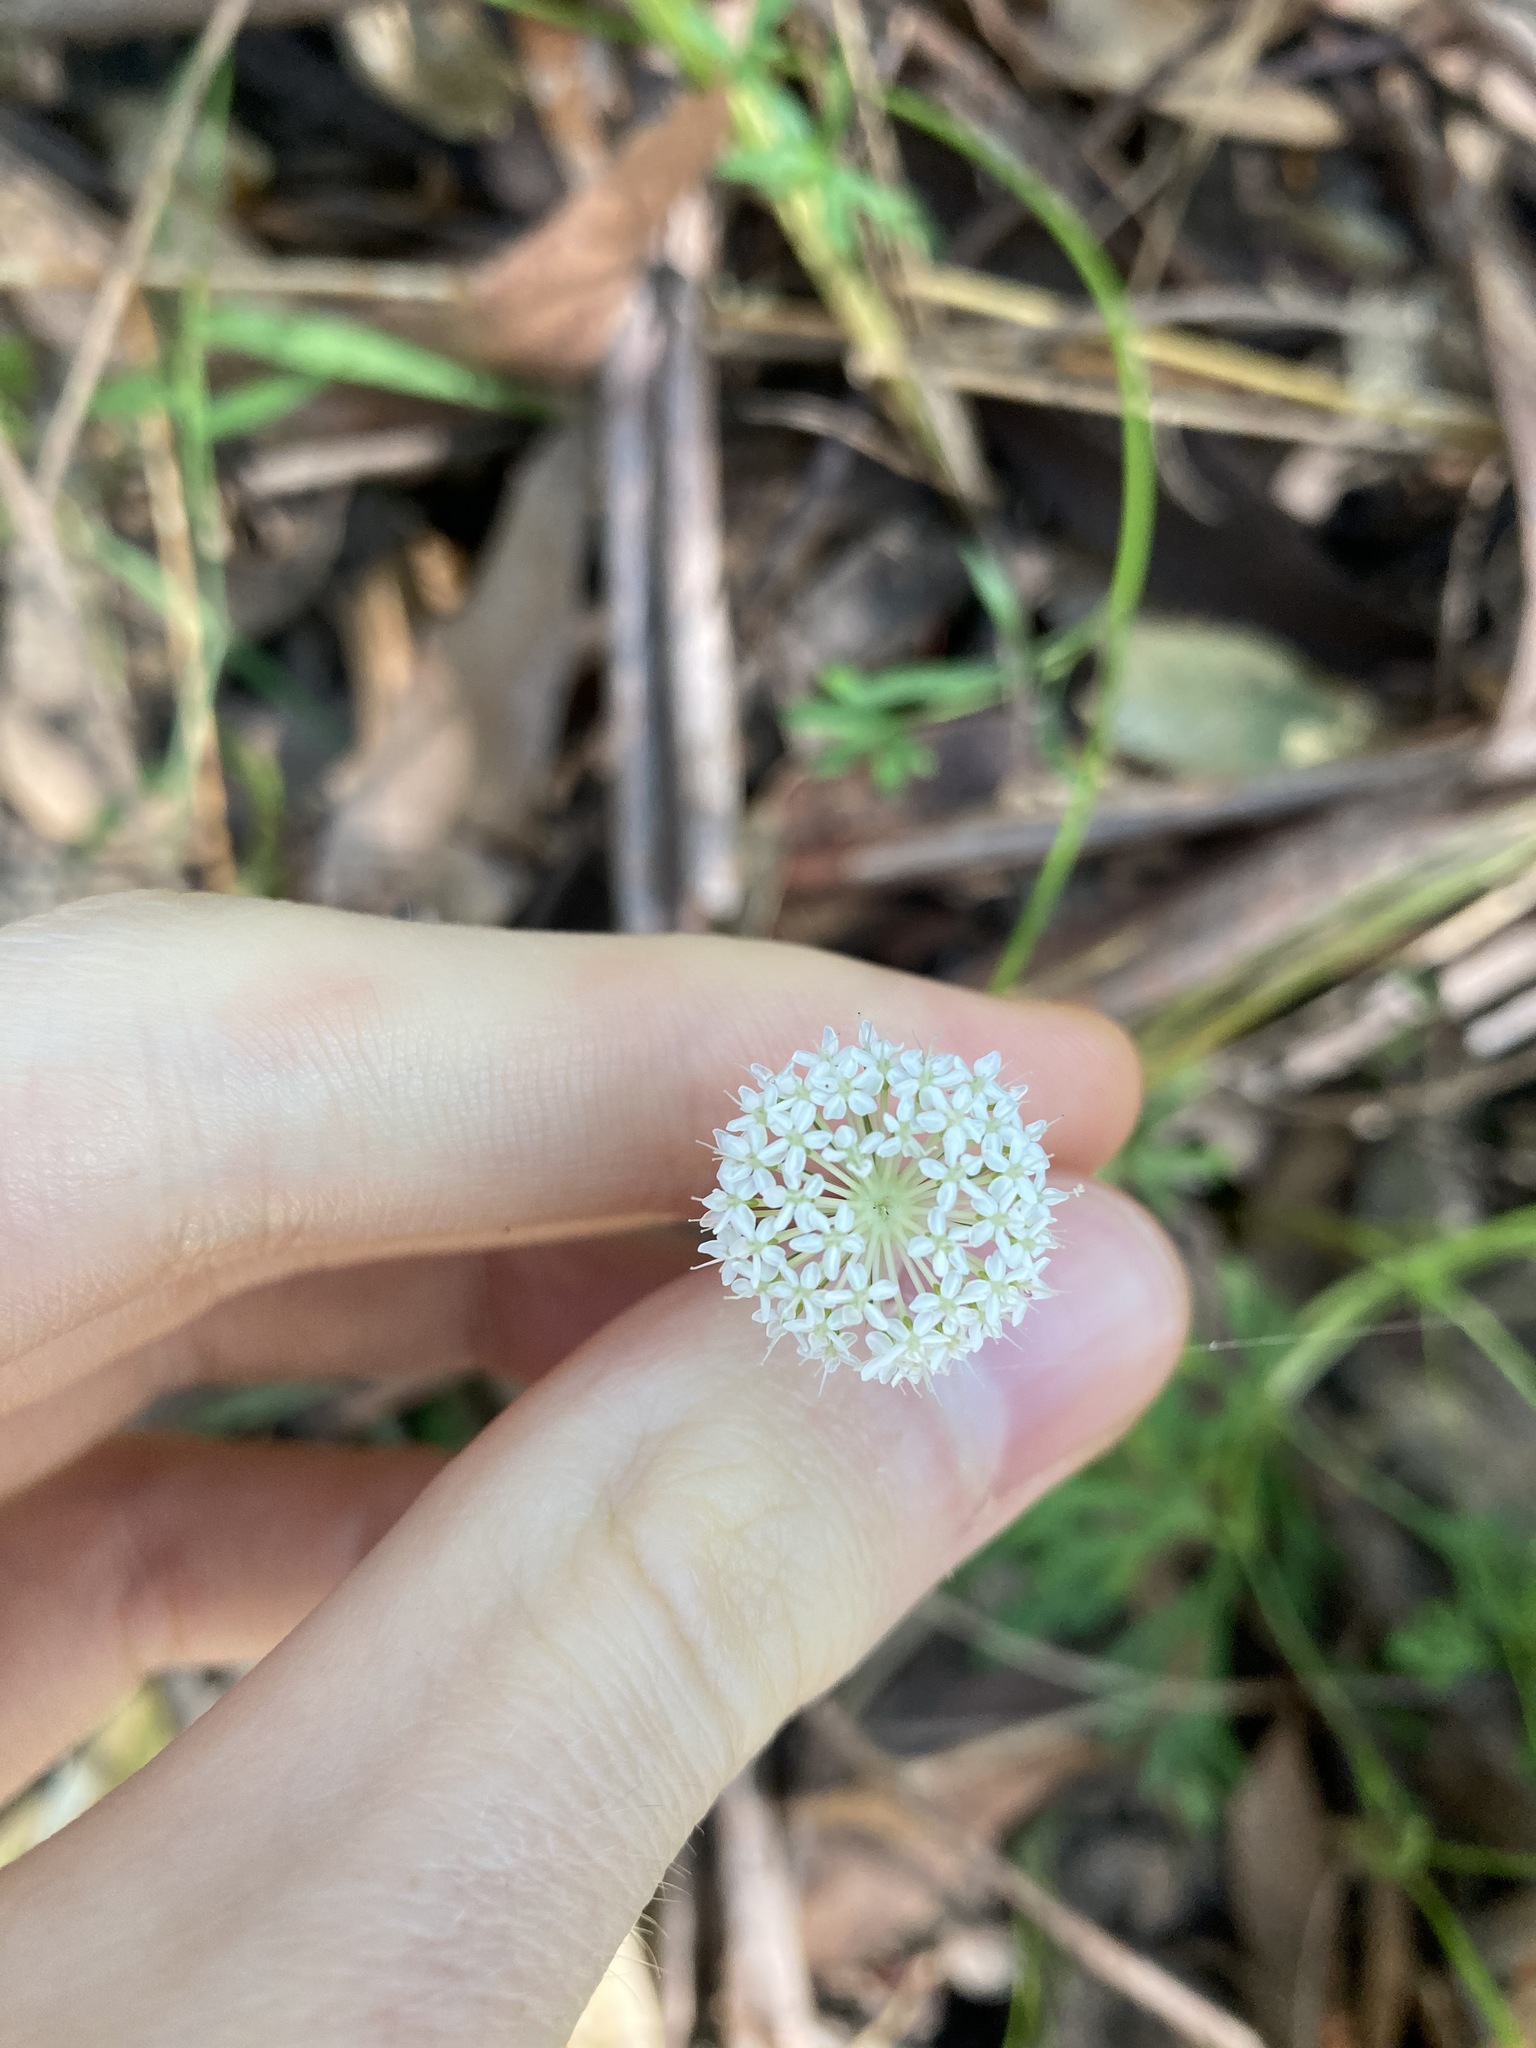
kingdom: Plantae
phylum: Tracheophyta
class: Magnoliopsida
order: Apiales
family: Araliaceae
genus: Trachymene
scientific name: Trachymene incisa
